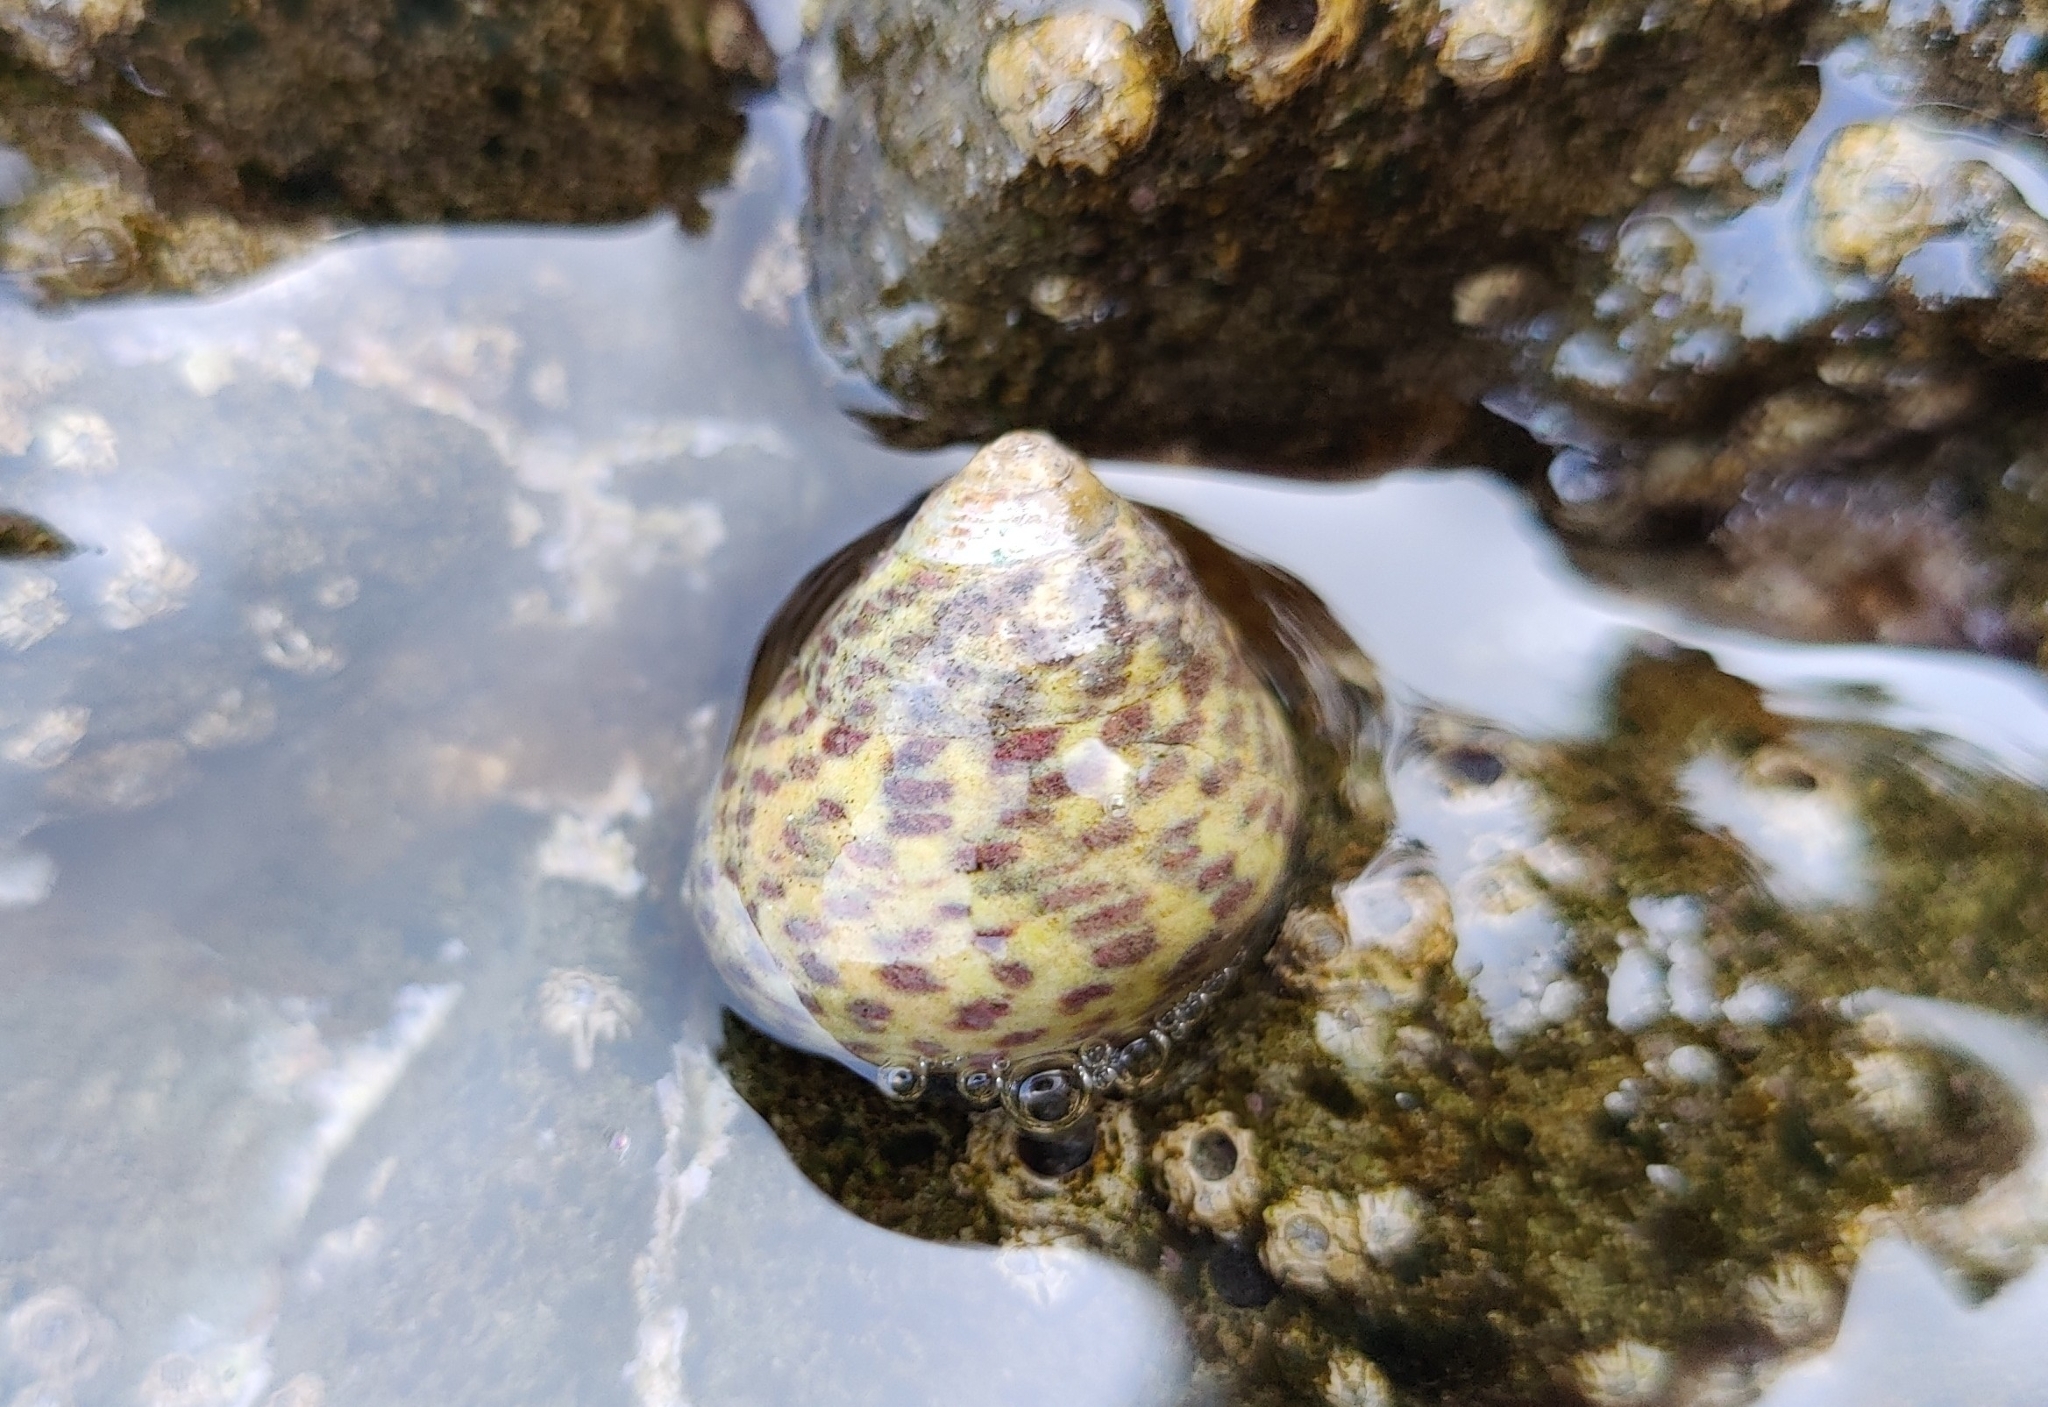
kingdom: Animalia
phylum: Mollusca
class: Gastropoda
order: Trochida
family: Trochidae
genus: Phorcus
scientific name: Phorcus turbinatus
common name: Turbinate monodont
